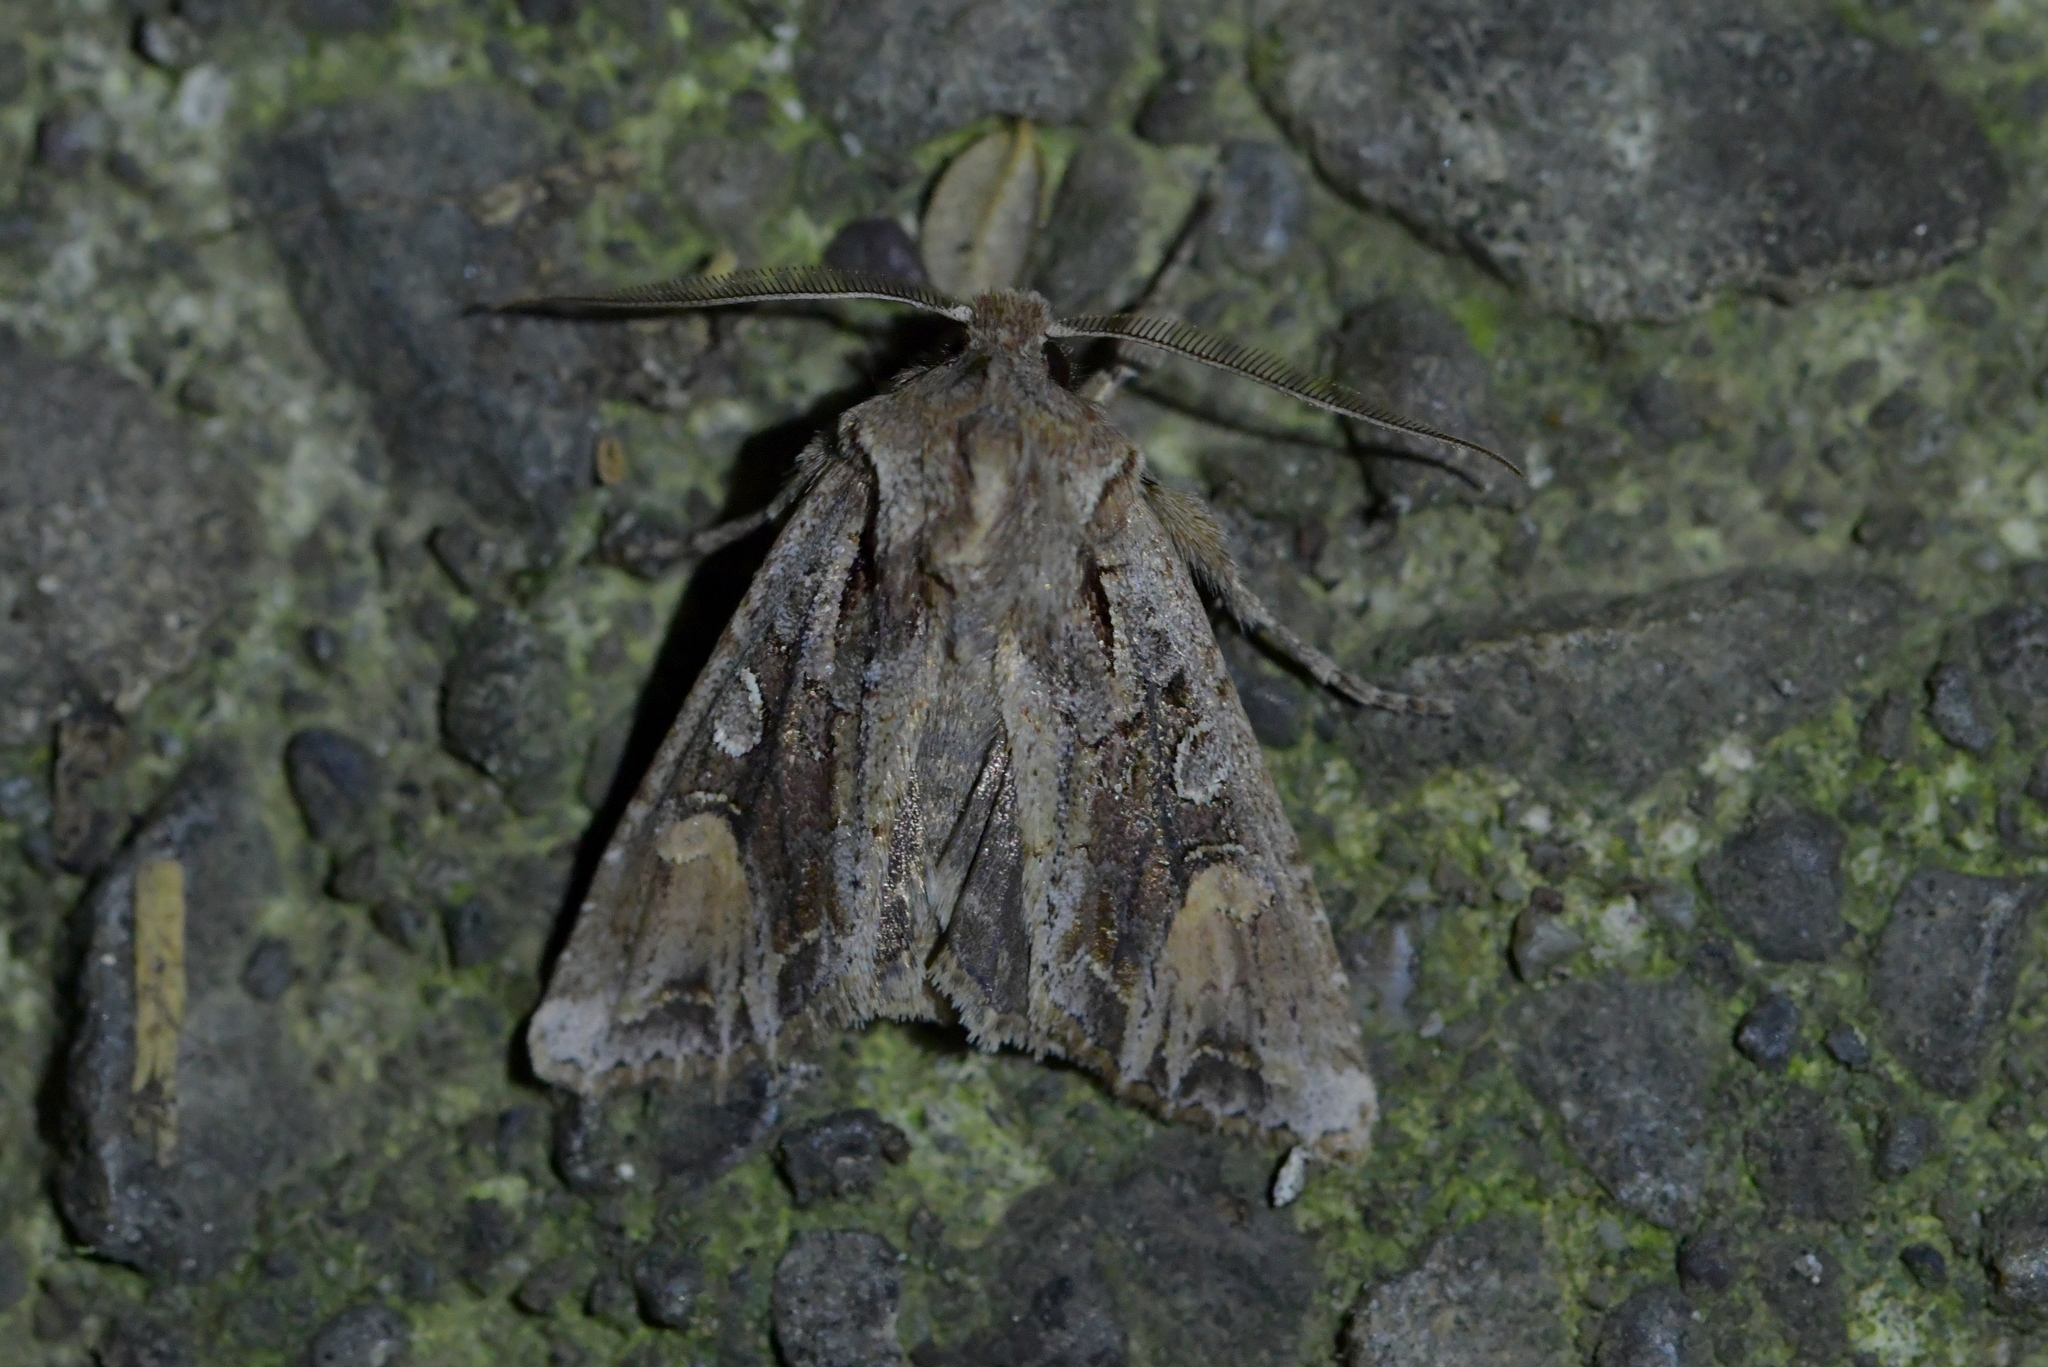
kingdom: Animalia
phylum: Arthropoda
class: Insecta
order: Lepidoptera
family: Noctuidae
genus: Ichneutica
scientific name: Ichneutica
